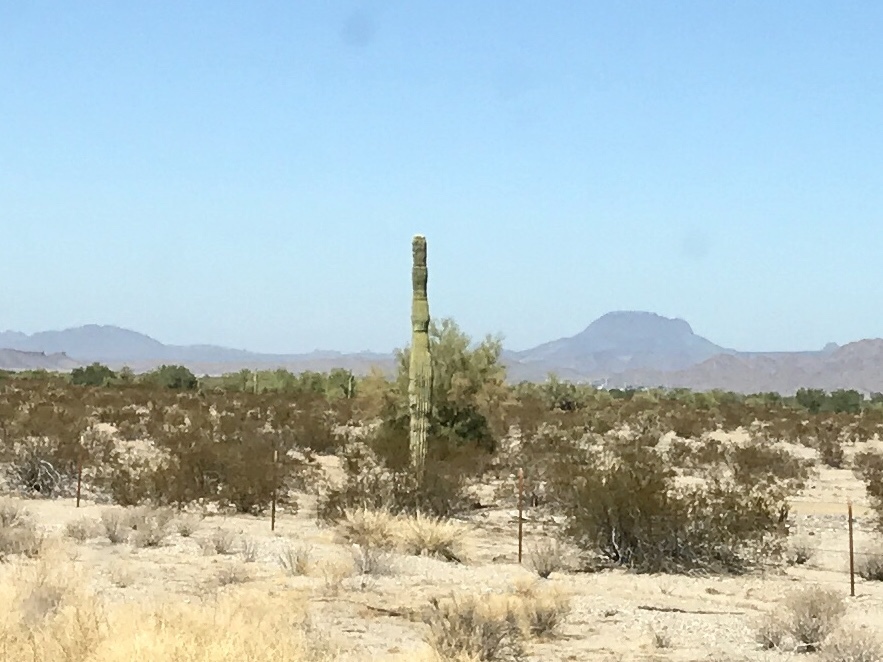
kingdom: Plantae
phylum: Tracheophyta
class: Magnoliopsida
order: Caryophyllales
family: Cactaceae
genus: Carnegiea
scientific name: Carnegiea gigantea
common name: Saguaro
